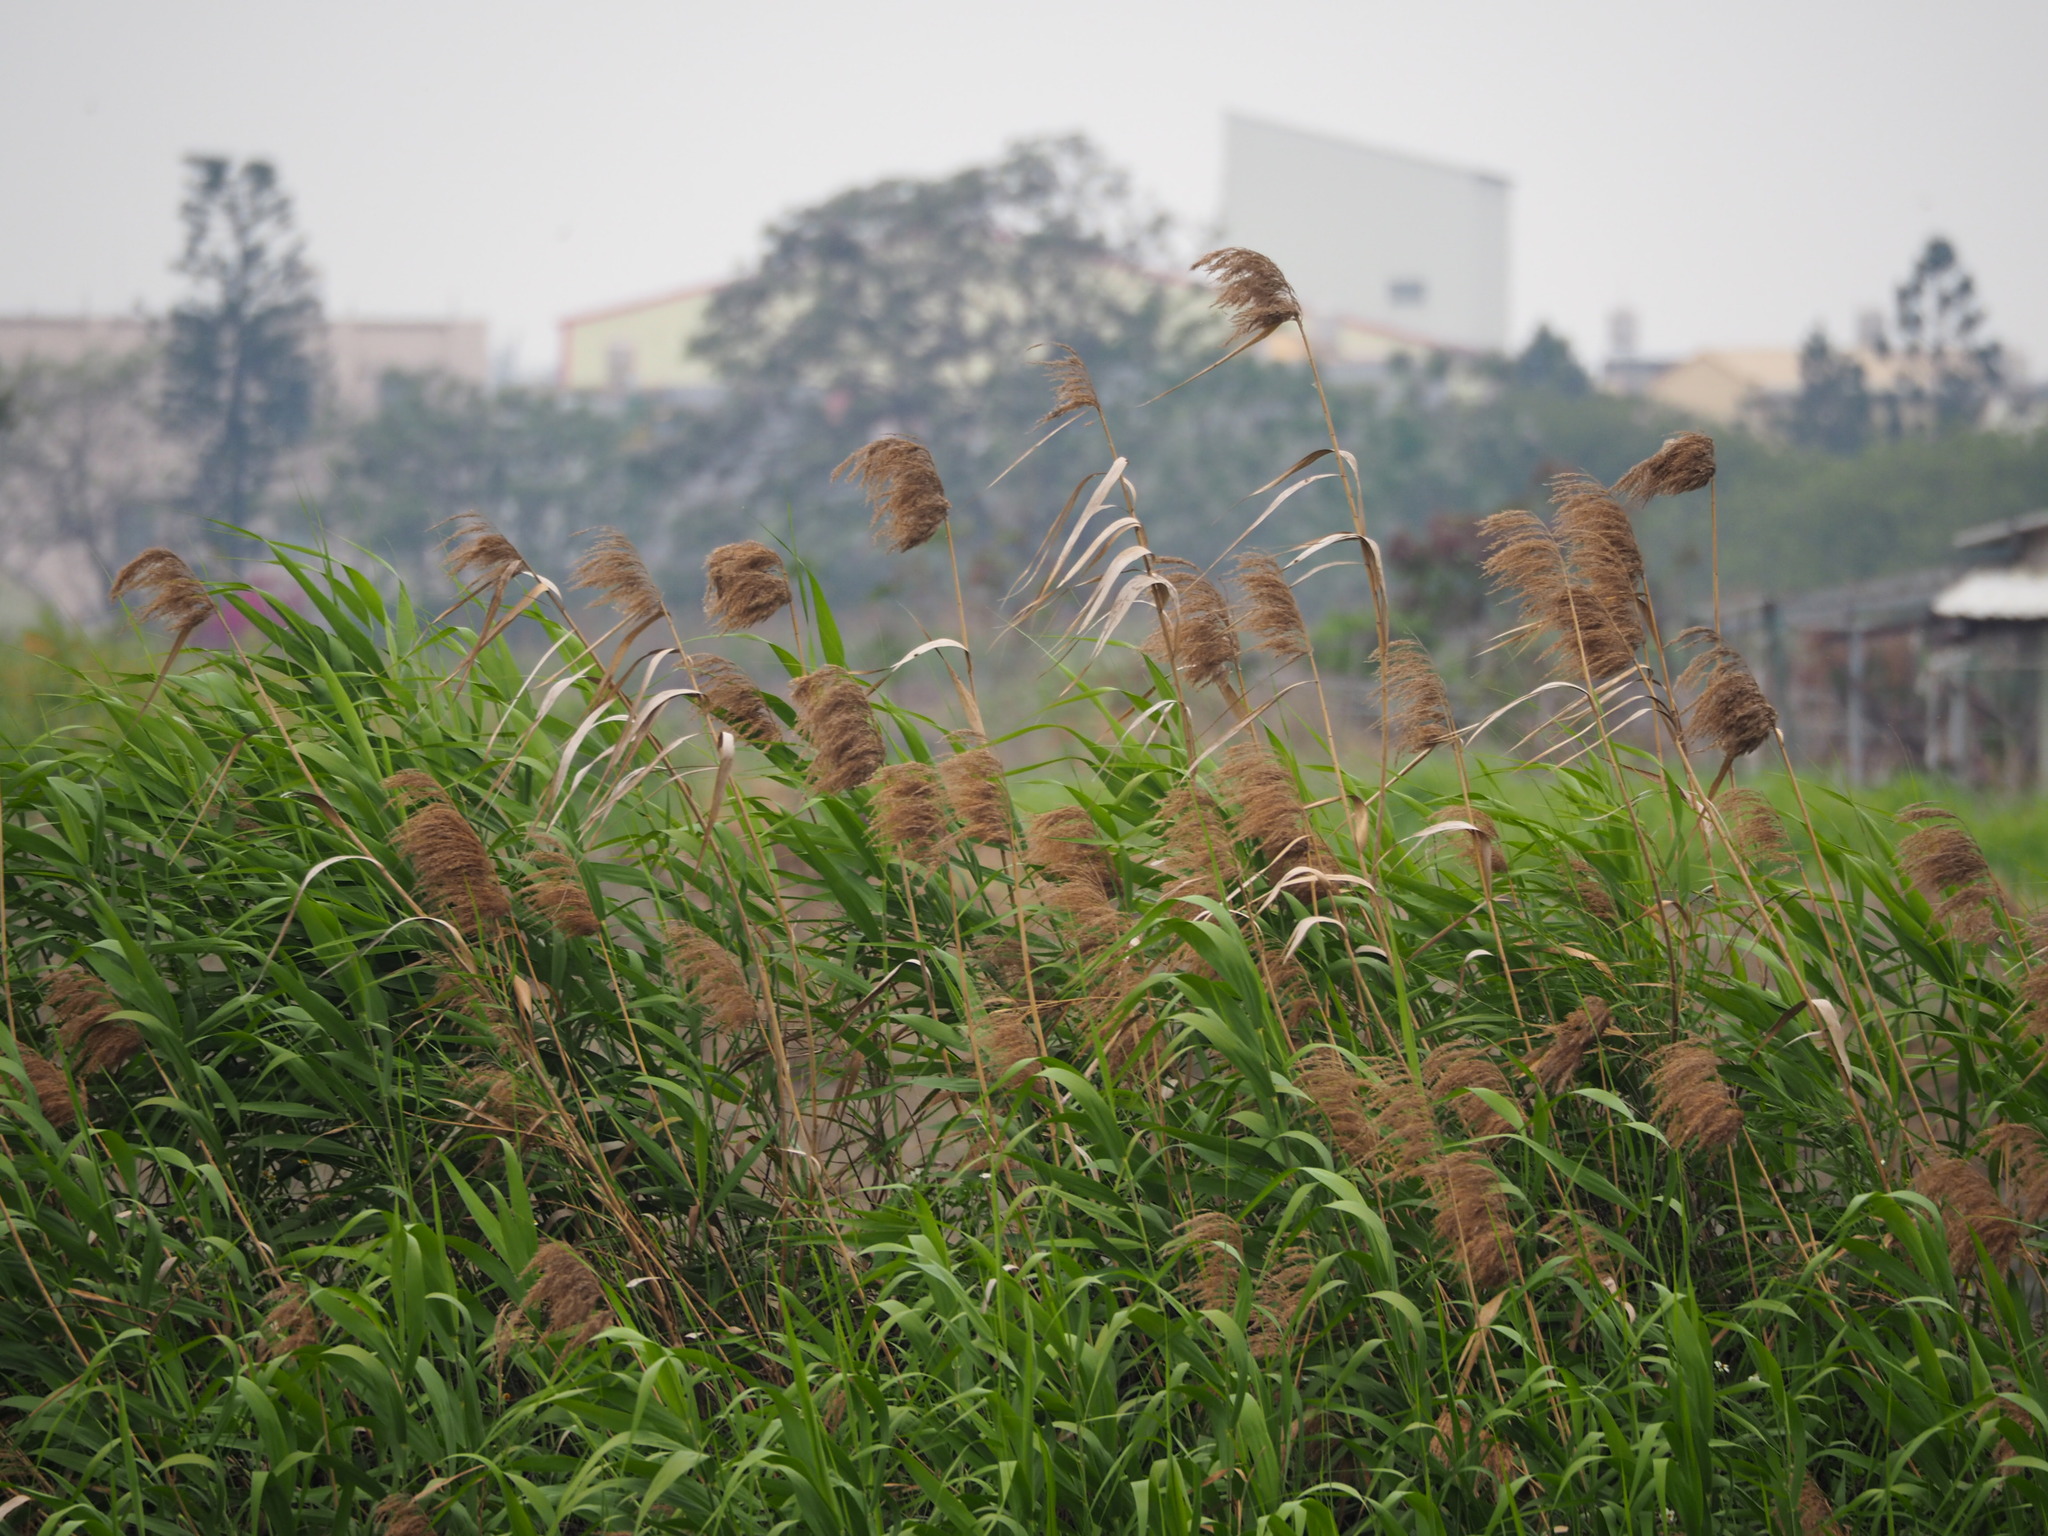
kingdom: Plantae
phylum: Tracheophyta
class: Liliopsida
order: Poales
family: Poaceae
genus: Phragmites
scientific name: Phragmites australis
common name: Common reed
